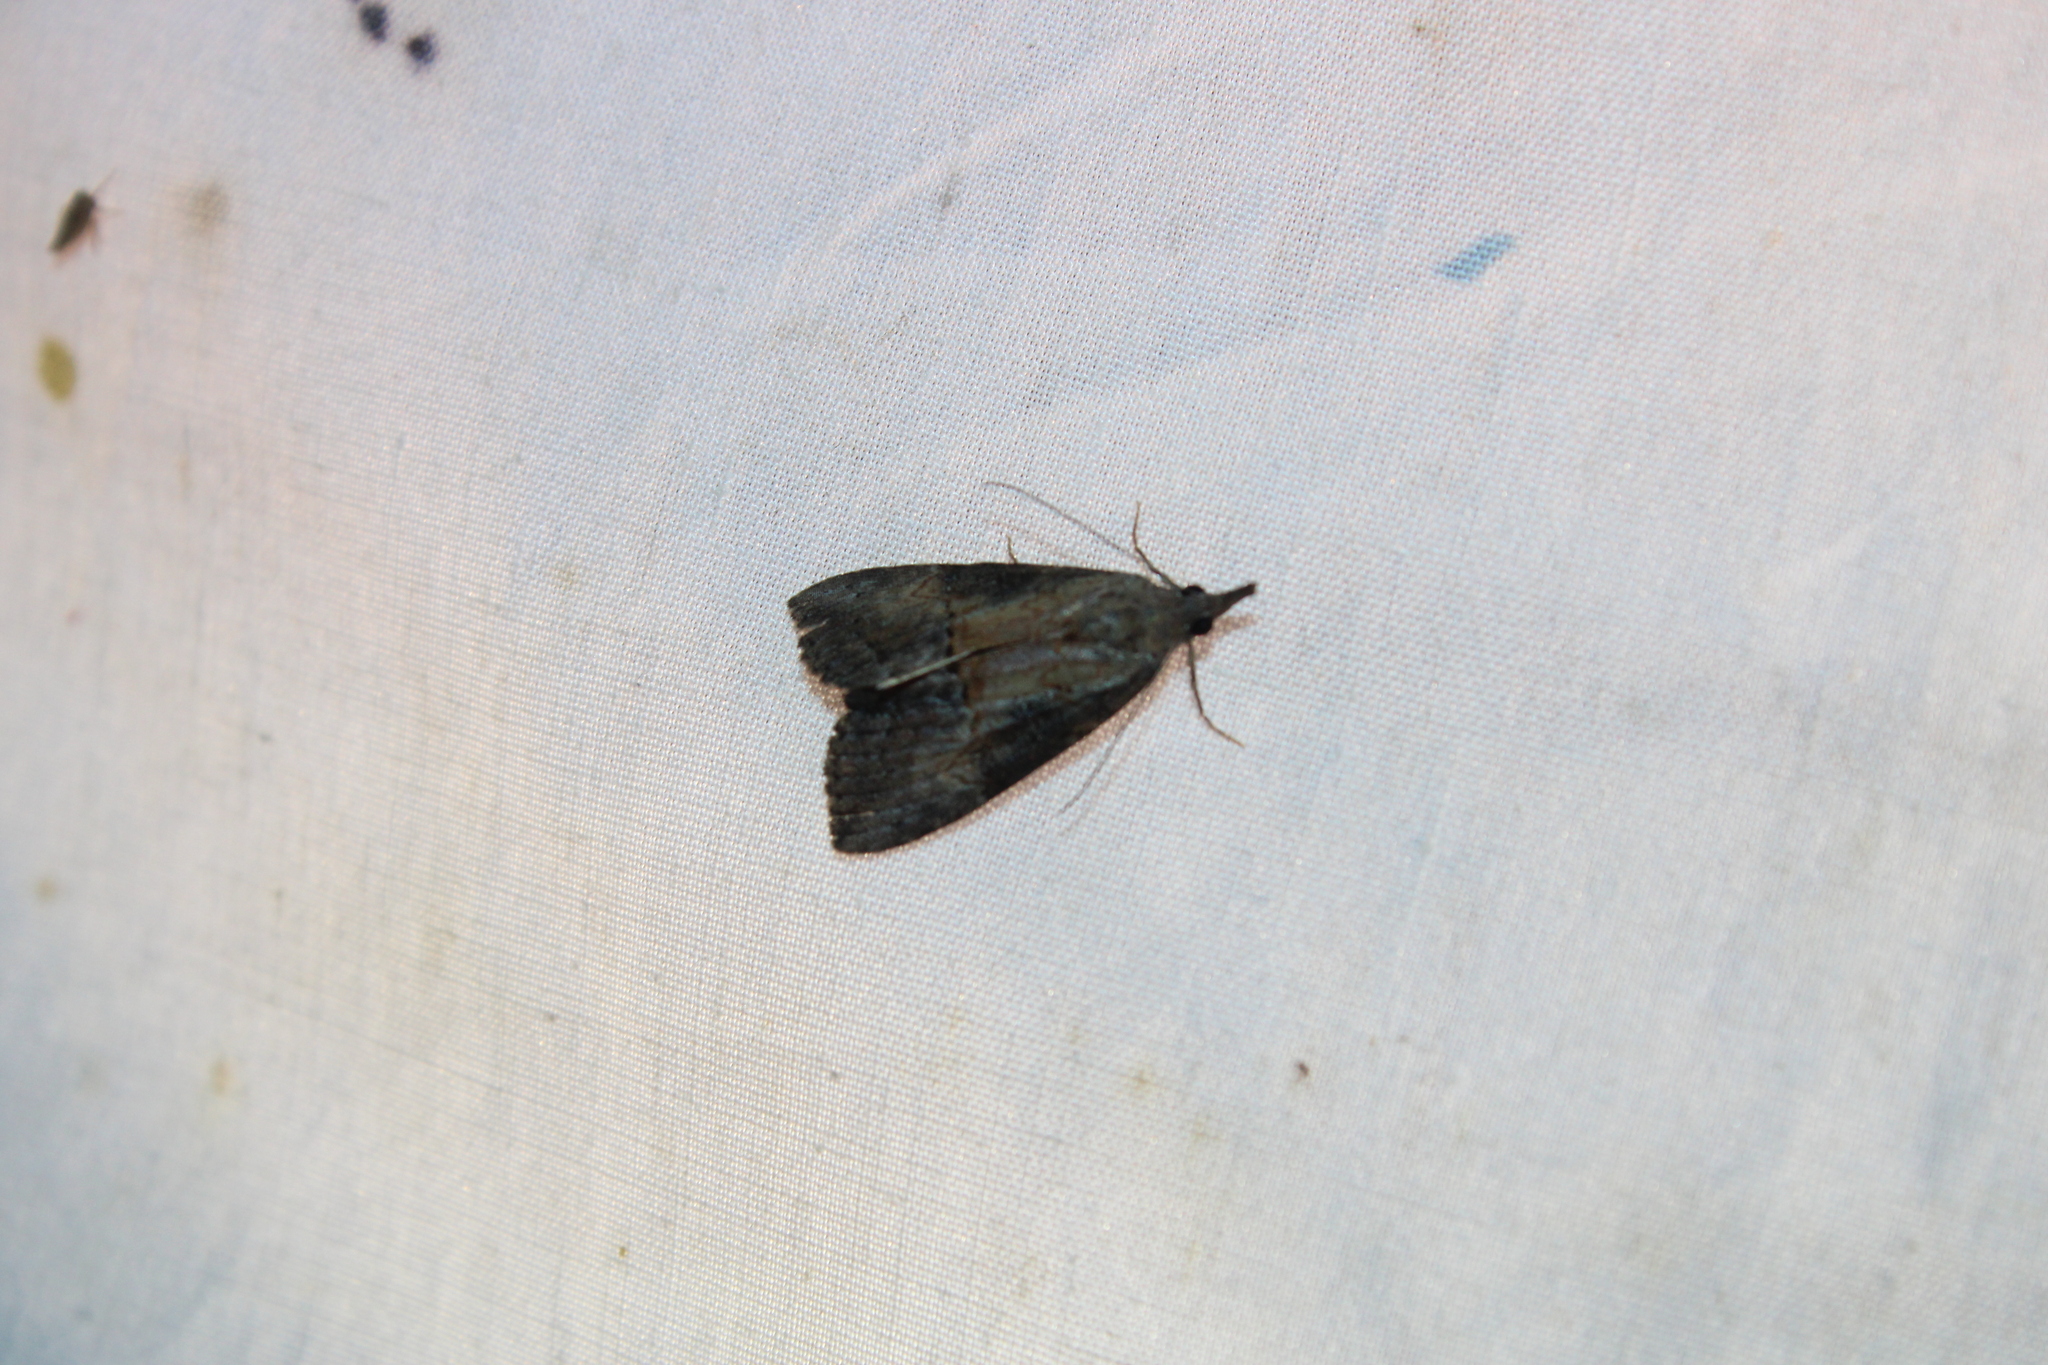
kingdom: Animalia
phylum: Arthropoda
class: Insecta
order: Lepidoptera
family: Erebidae
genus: Hypena
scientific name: Hypena scabra
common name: Green cloverworm
